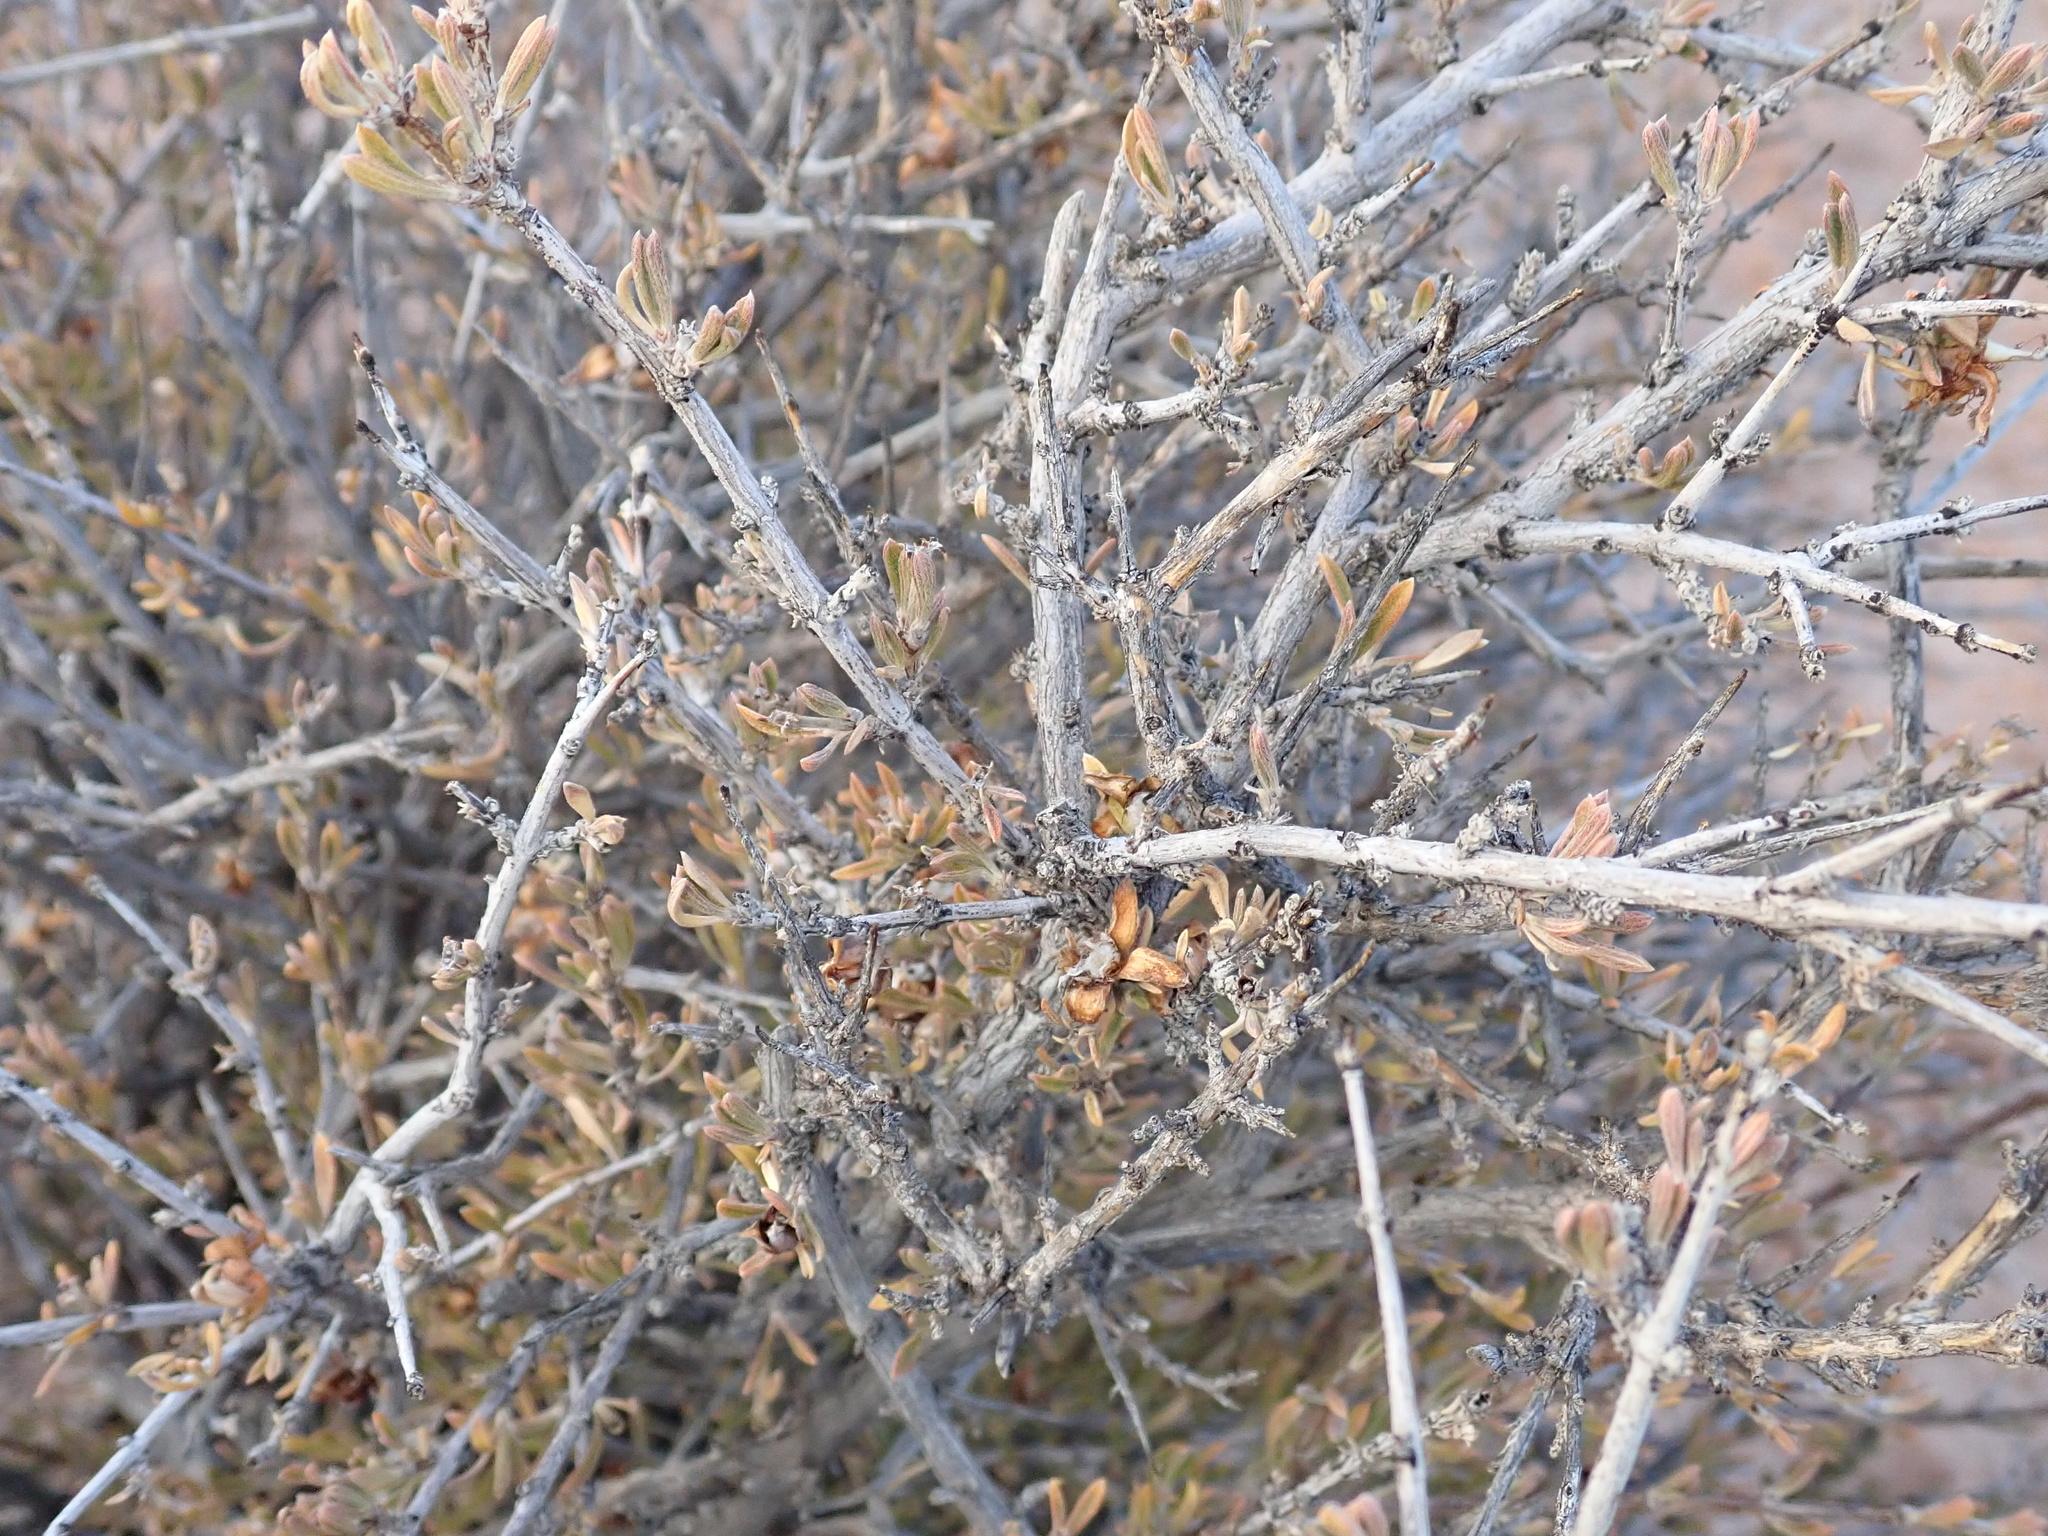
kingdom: Plantae
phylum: Tracheophyta
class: Magnoliopsida
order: Rosales
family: Rosaceae
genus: Coleogyne
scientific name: Coleogyne ramosissima
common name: Blackbrush
